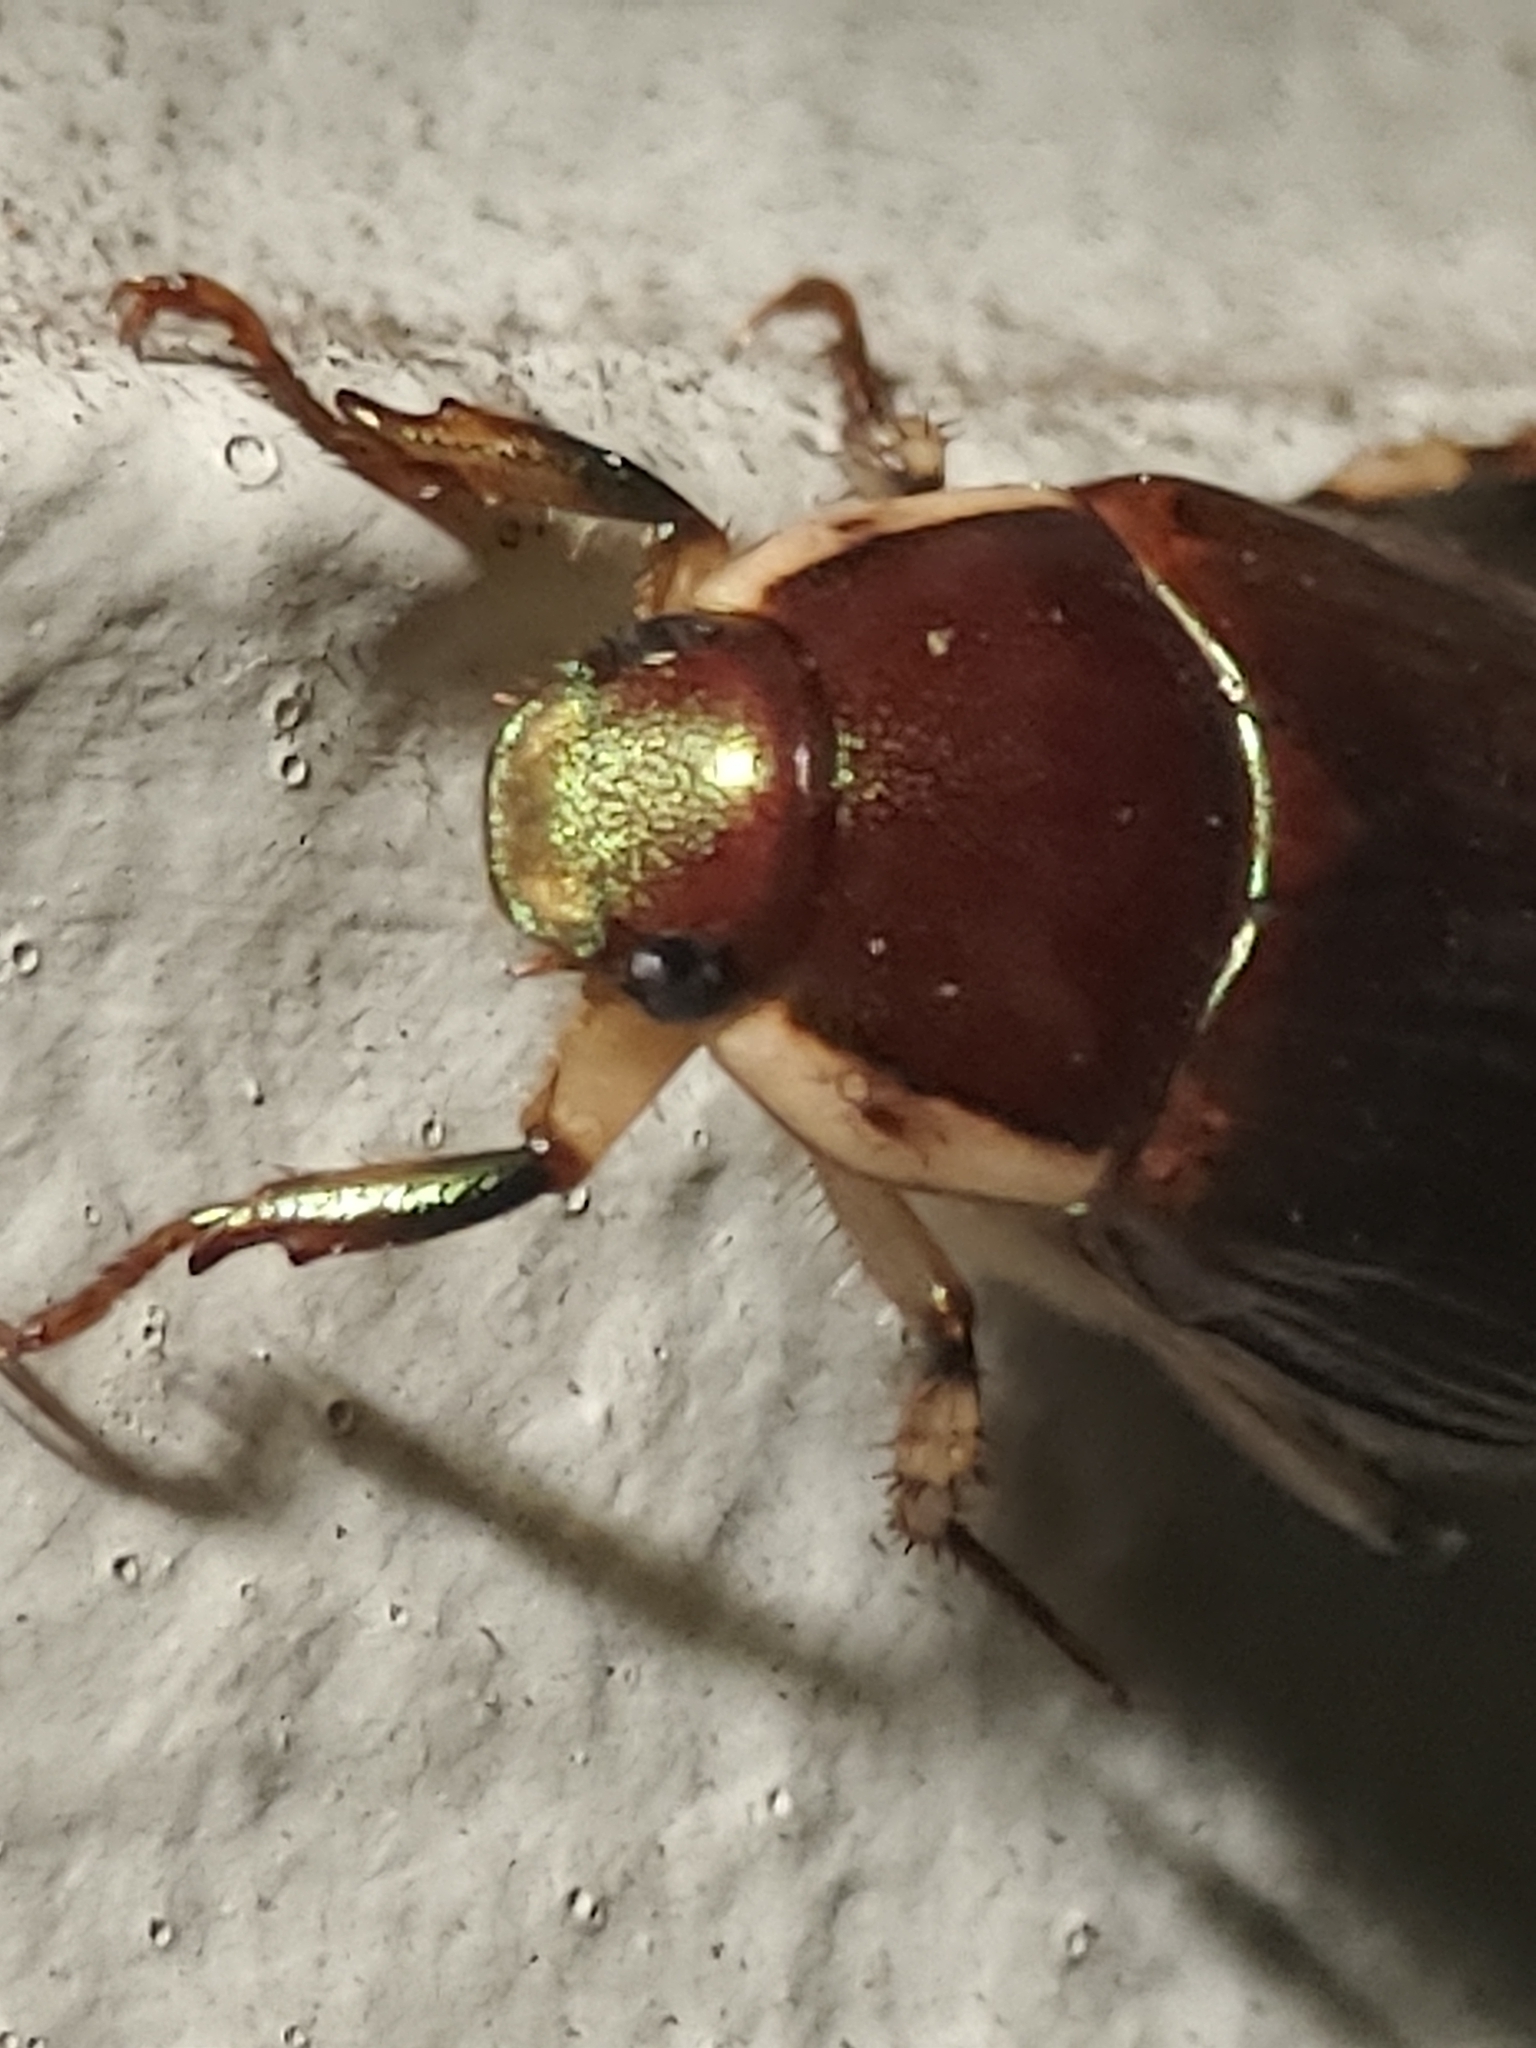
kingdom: Animalia
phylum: Arthropoda
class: Insecta
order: Coleoptera
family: Scarabaeidae
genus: Callistethus
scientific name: Callistethus marginatus
